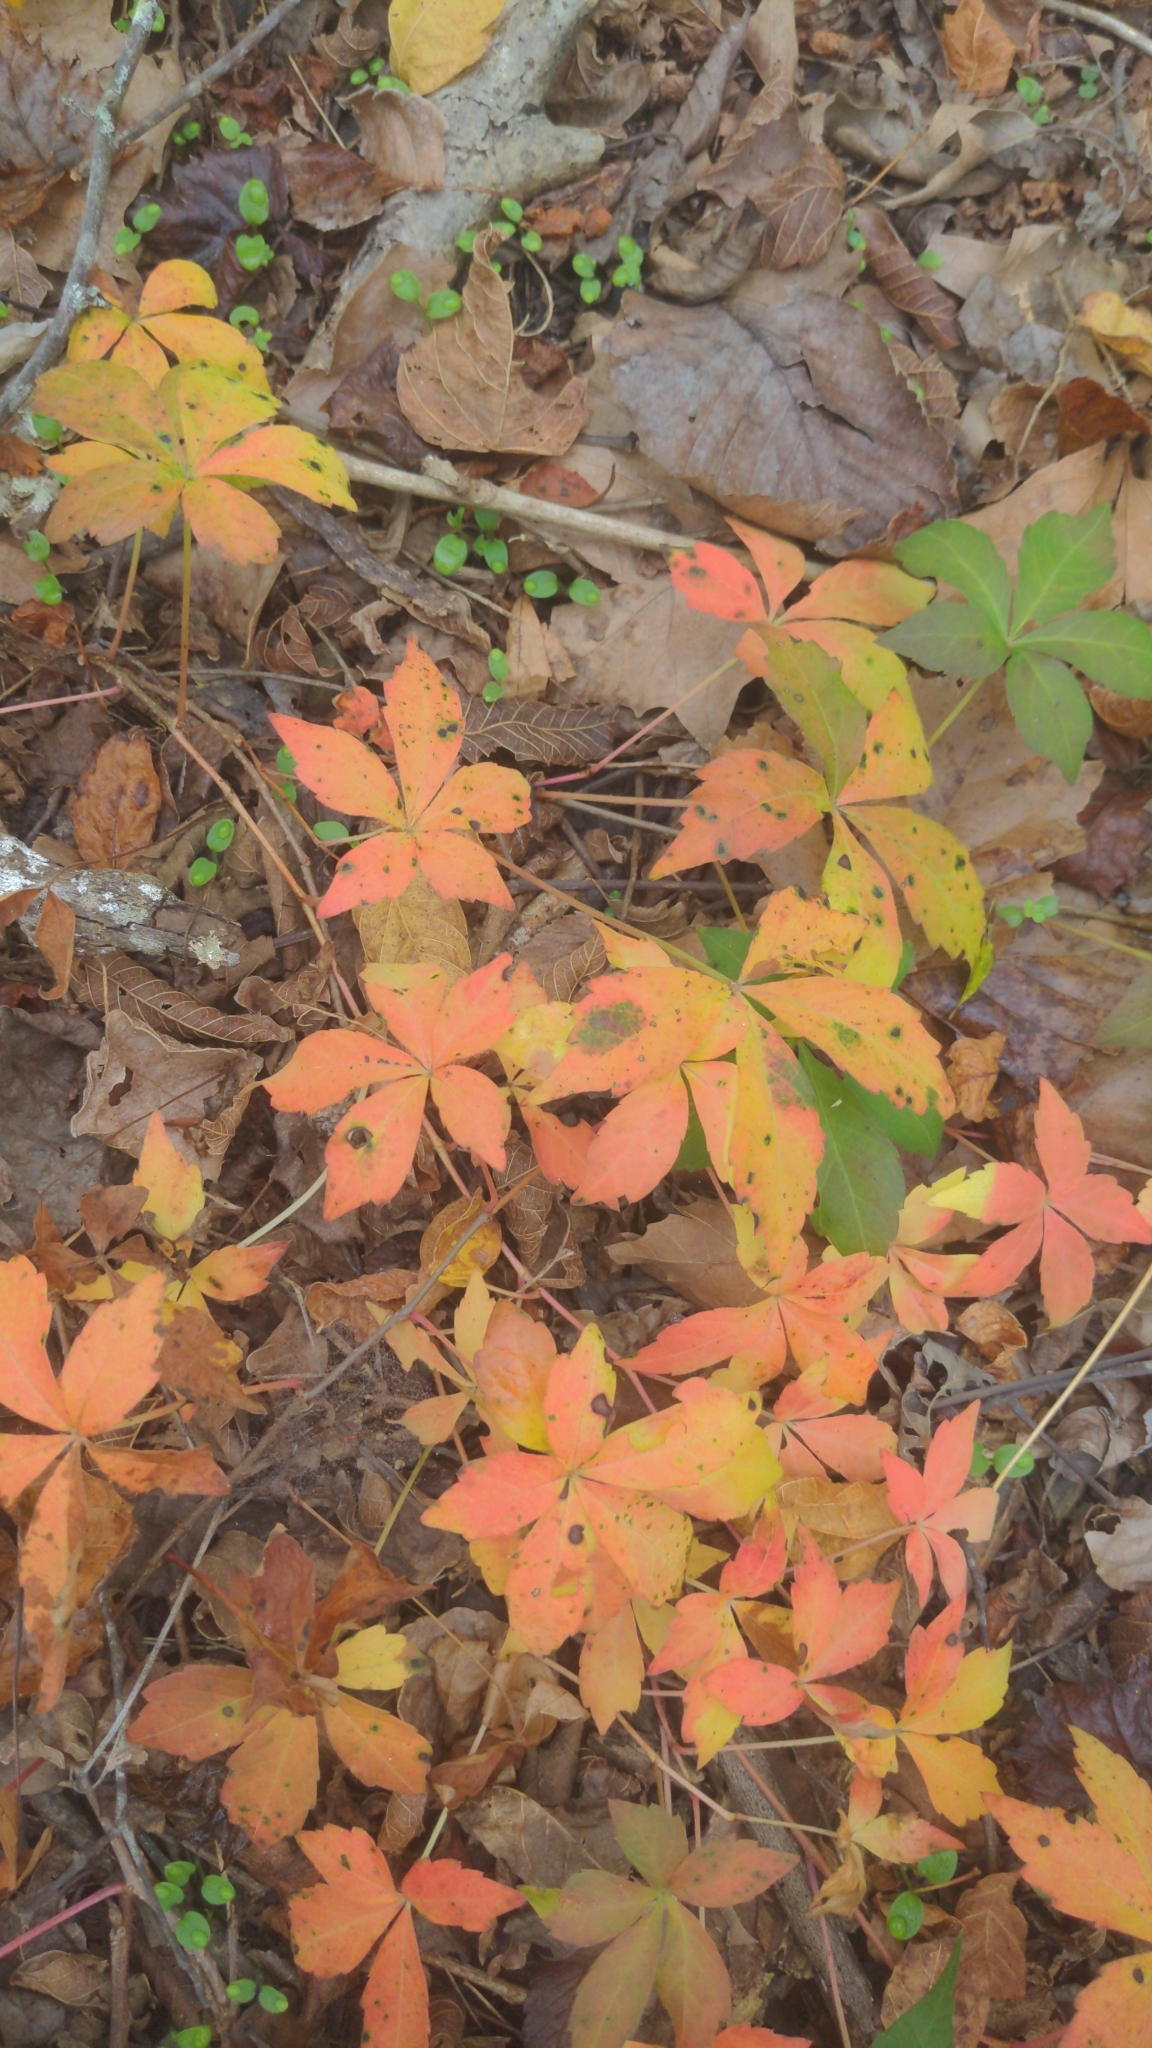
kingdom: Plantae
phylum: Tracheophyta
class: Magnoliopsida
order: Vitales
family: Vitaceae
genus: Parthenocissus
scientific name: Parthenocissus quinquefolia
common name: Virginia-creeper
